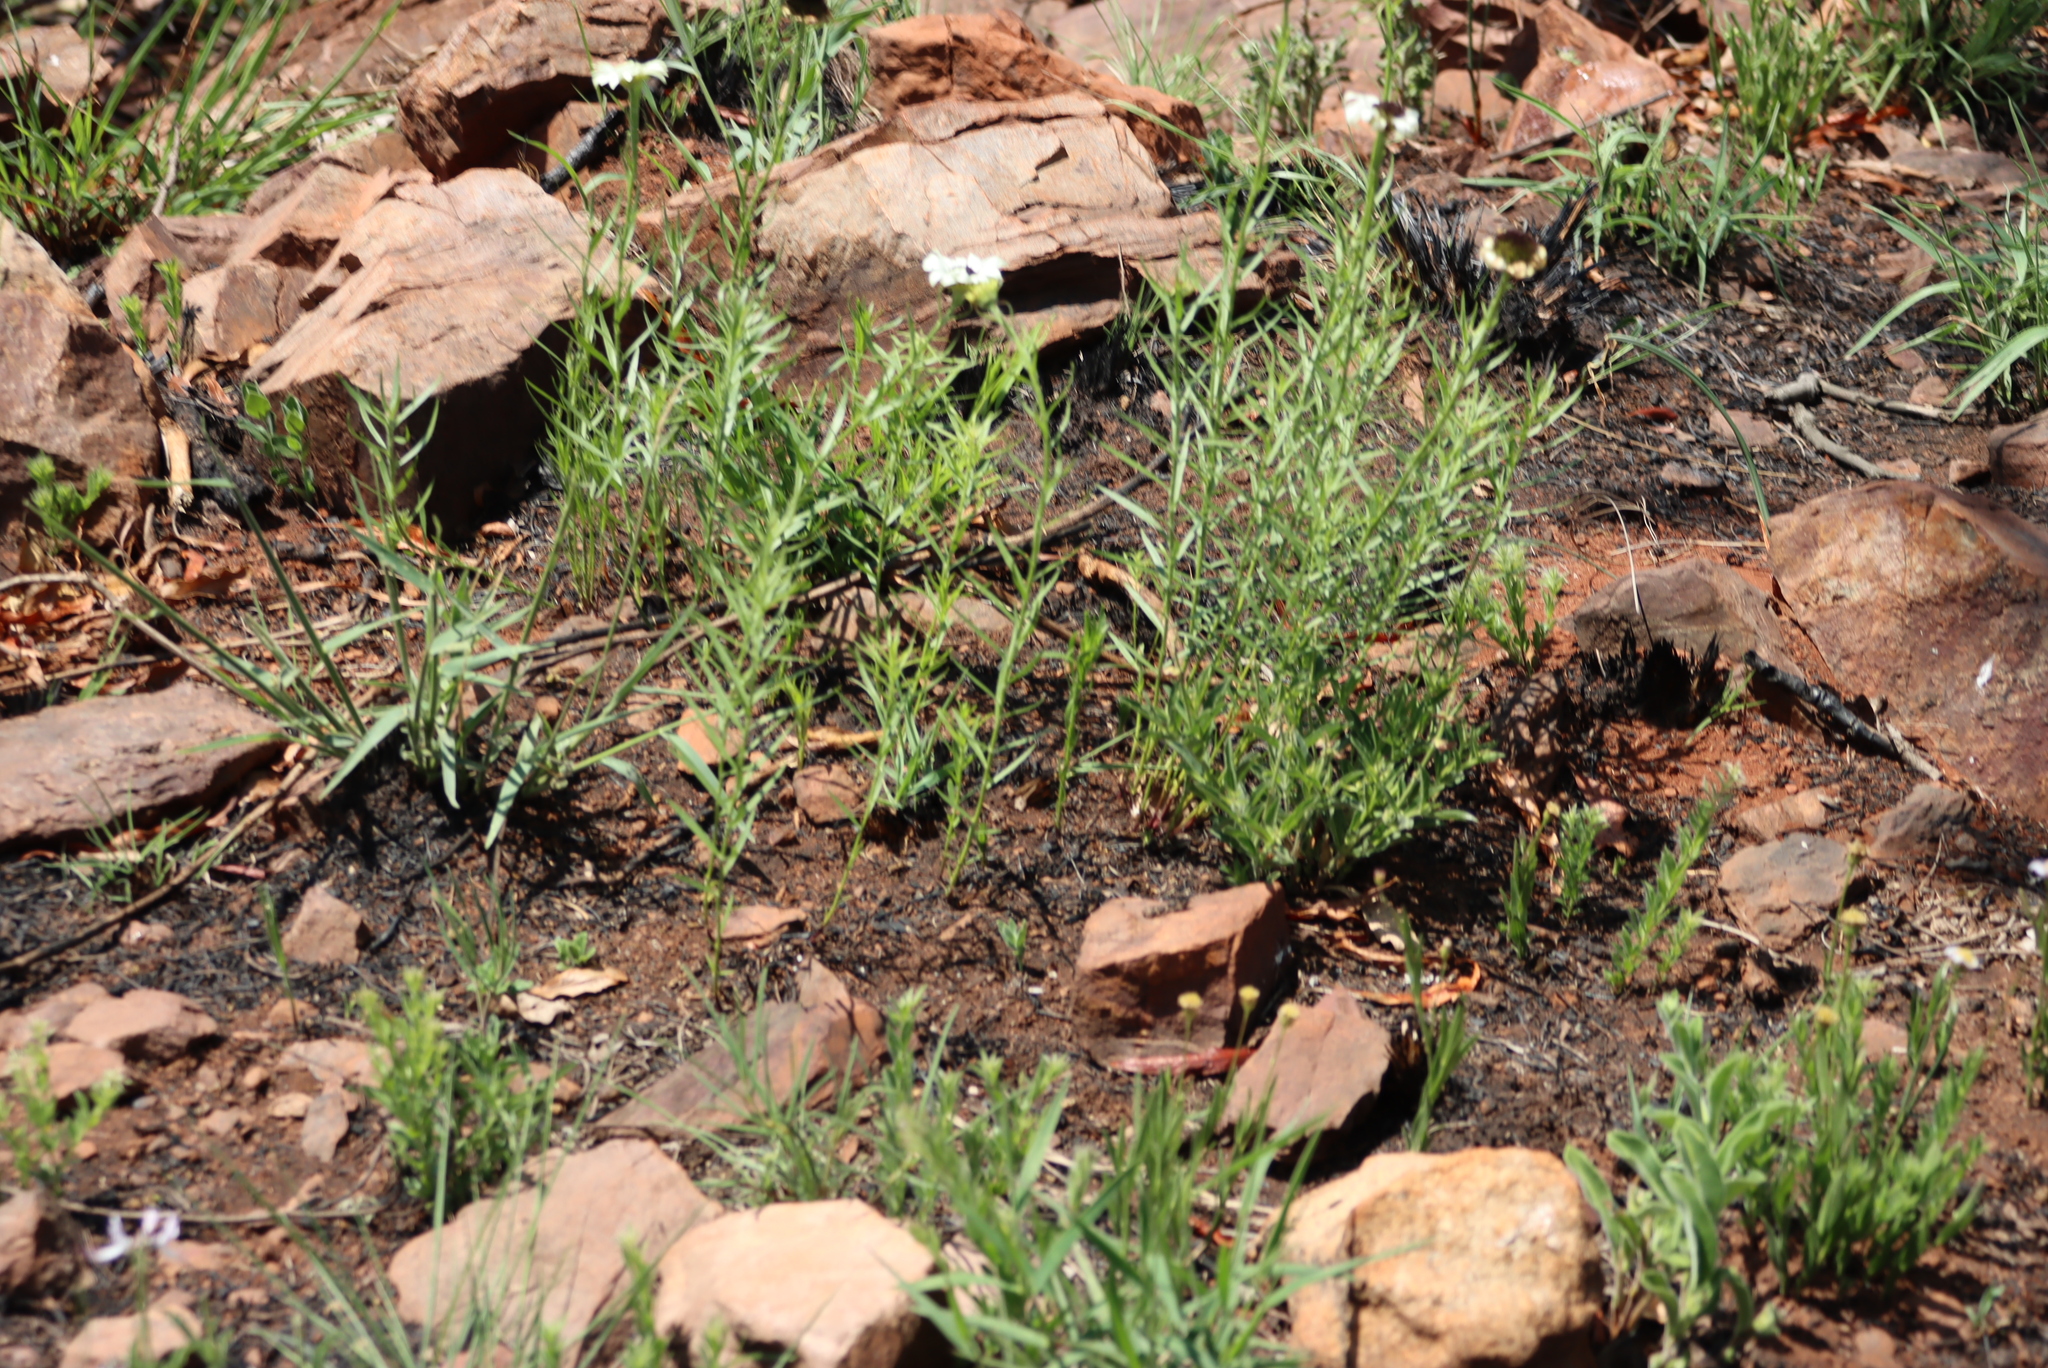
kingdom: Plantae
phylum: Tracheophyta
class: Magnoliopsida
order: Asterales
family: Asteraceae
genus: Callilepis
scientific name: Callilepis laureola
